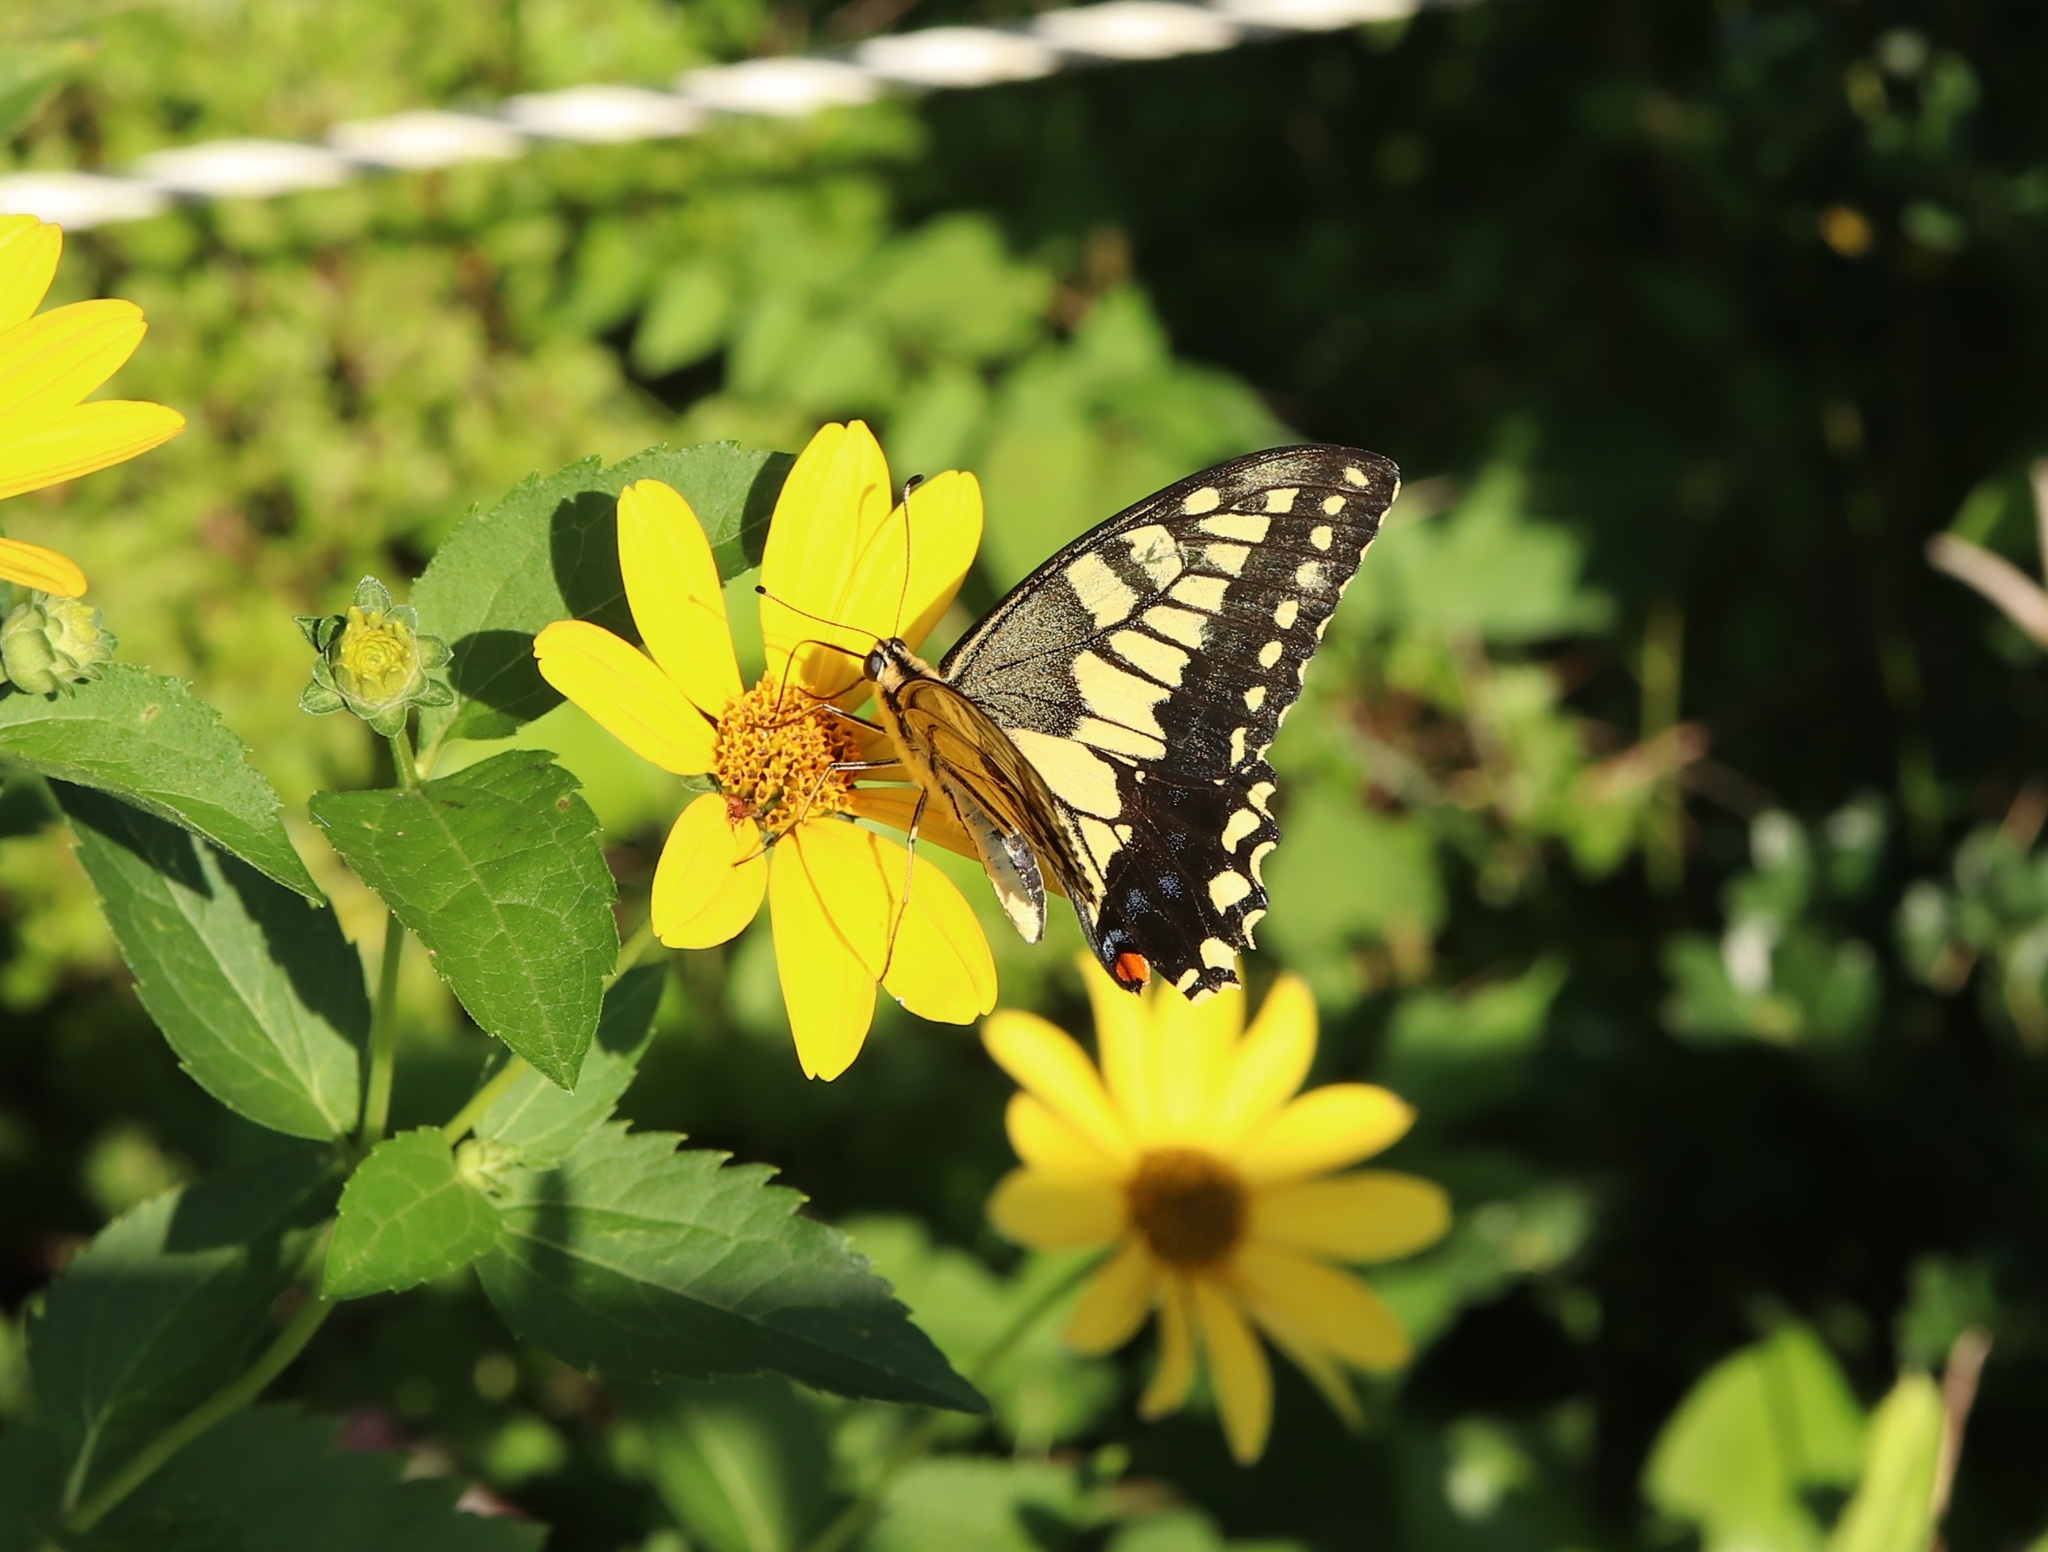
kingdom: Animalia
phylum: Arthropoda
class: Insecta
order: Lepidoptera
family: Papilionidae
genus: Papilio
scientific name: Papilio machaon
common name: Swallowtail
